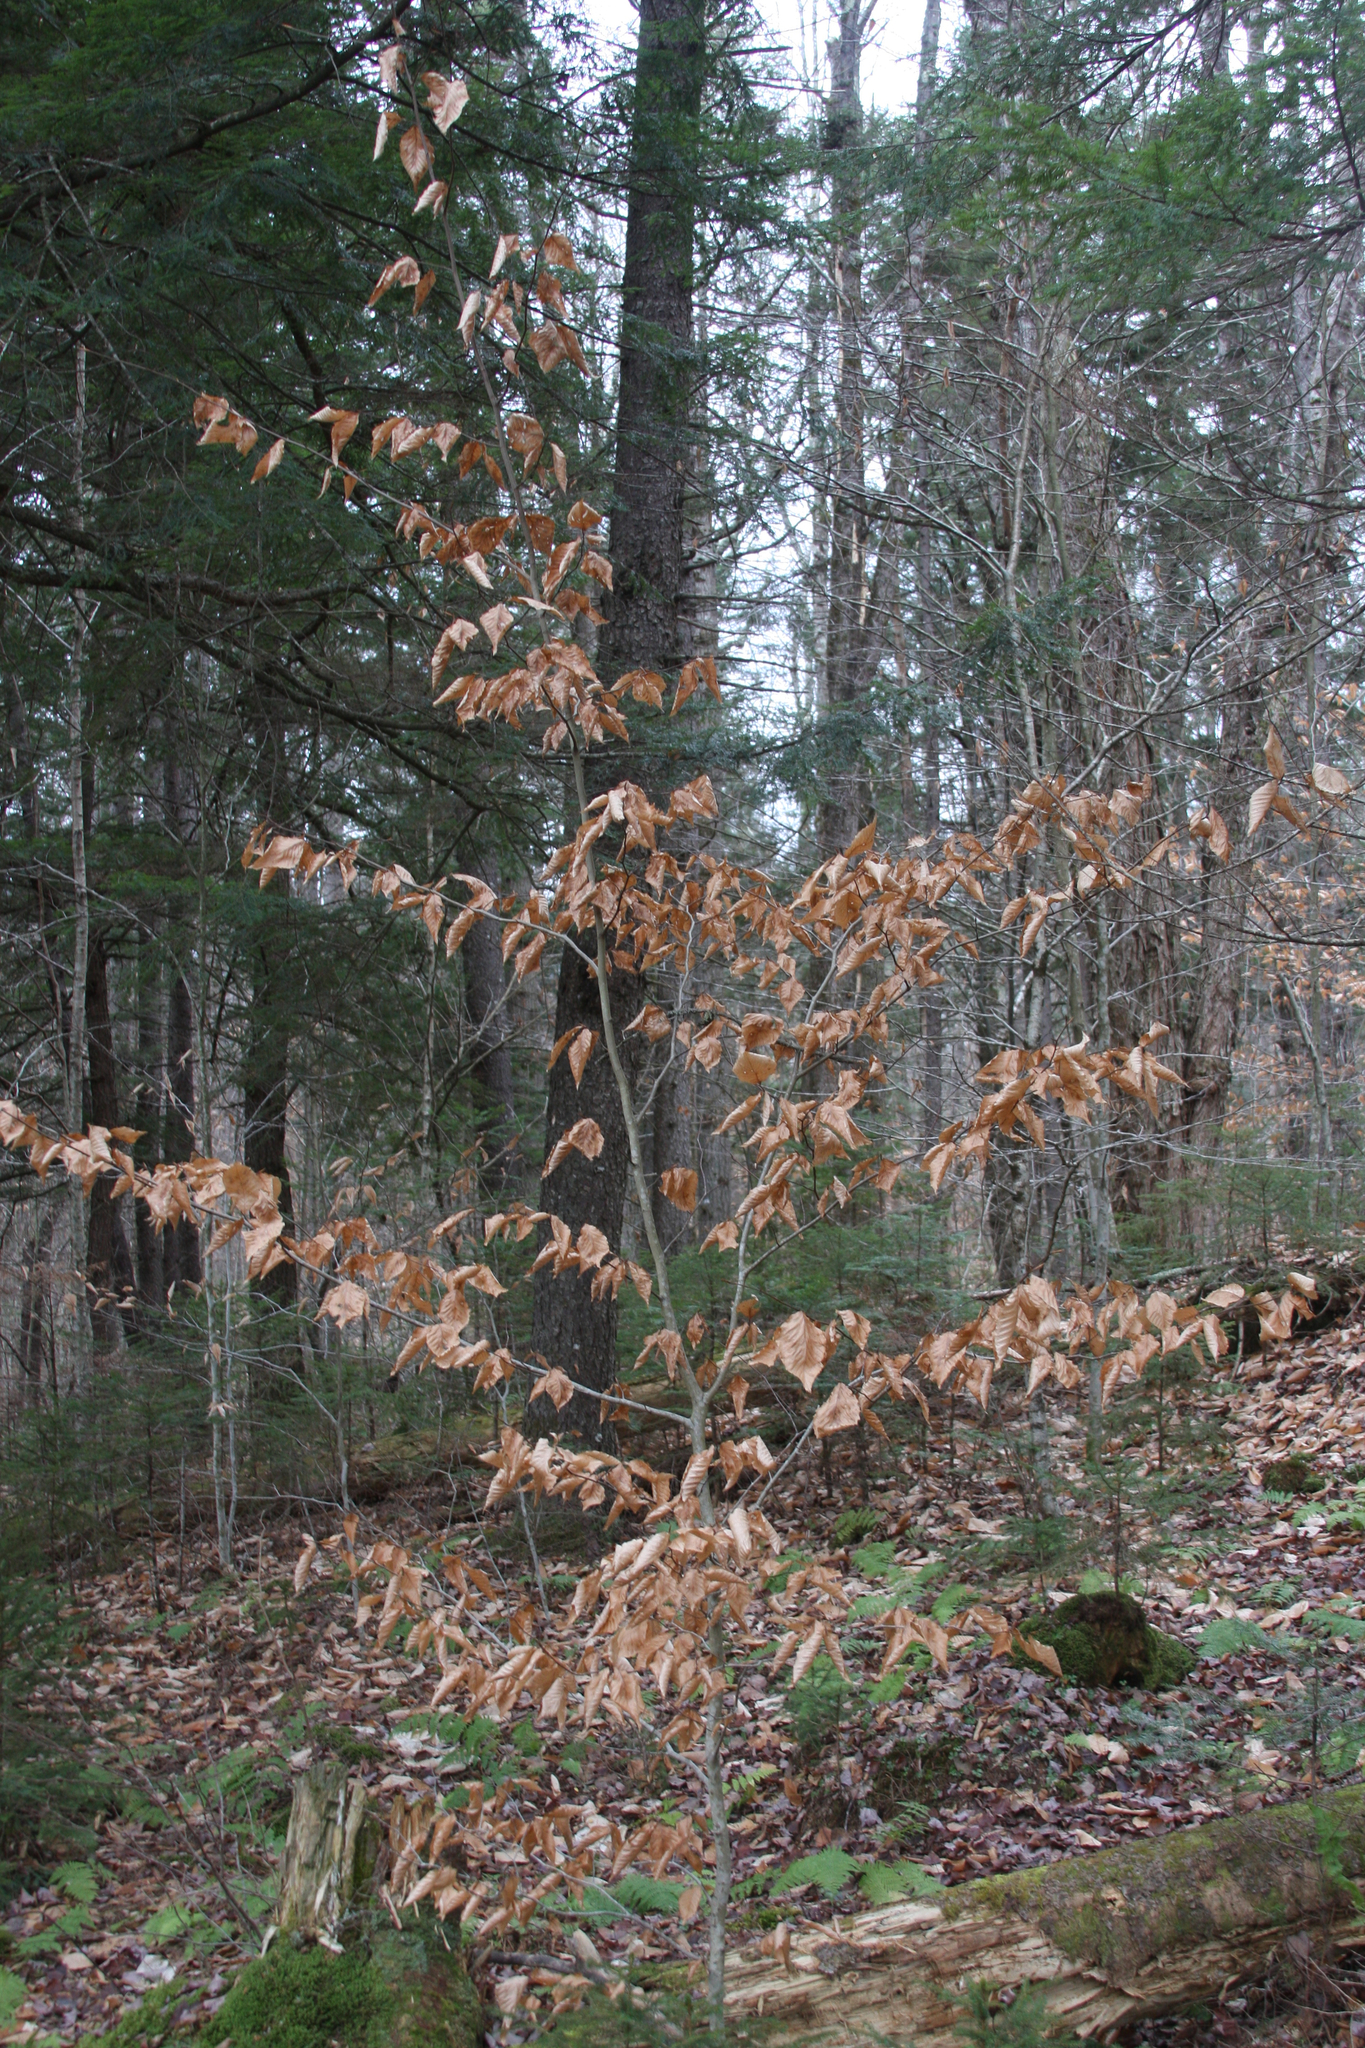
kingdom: Plantae
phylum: Tracheophyta
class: Magnoliopsida
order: Fagales
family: Fagaceae
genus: Fagus
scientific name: Fagus grandifolia
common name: American beech
